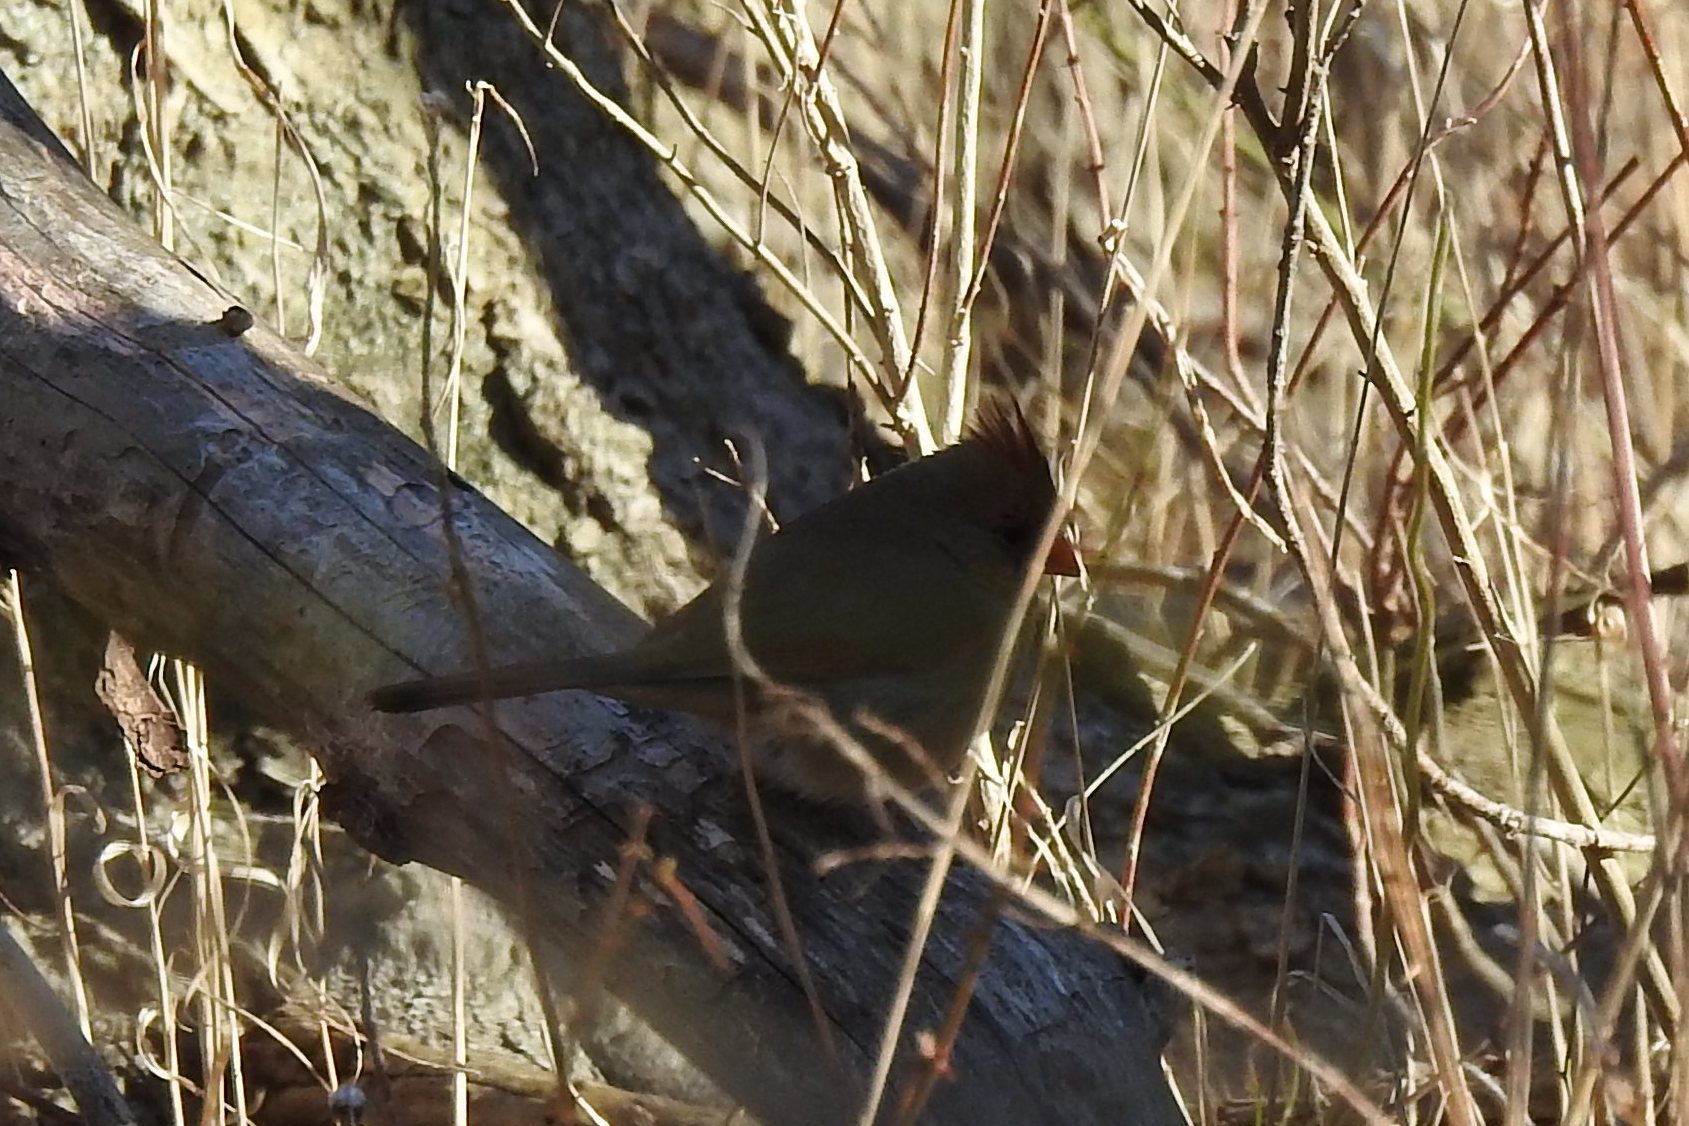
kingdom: Animalia
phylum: Chordata
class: Aves
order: Passeriformes
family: Cardinalidae
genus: Cardinalis
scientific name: Cardinalis cardinalis
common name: Northern cardinal
